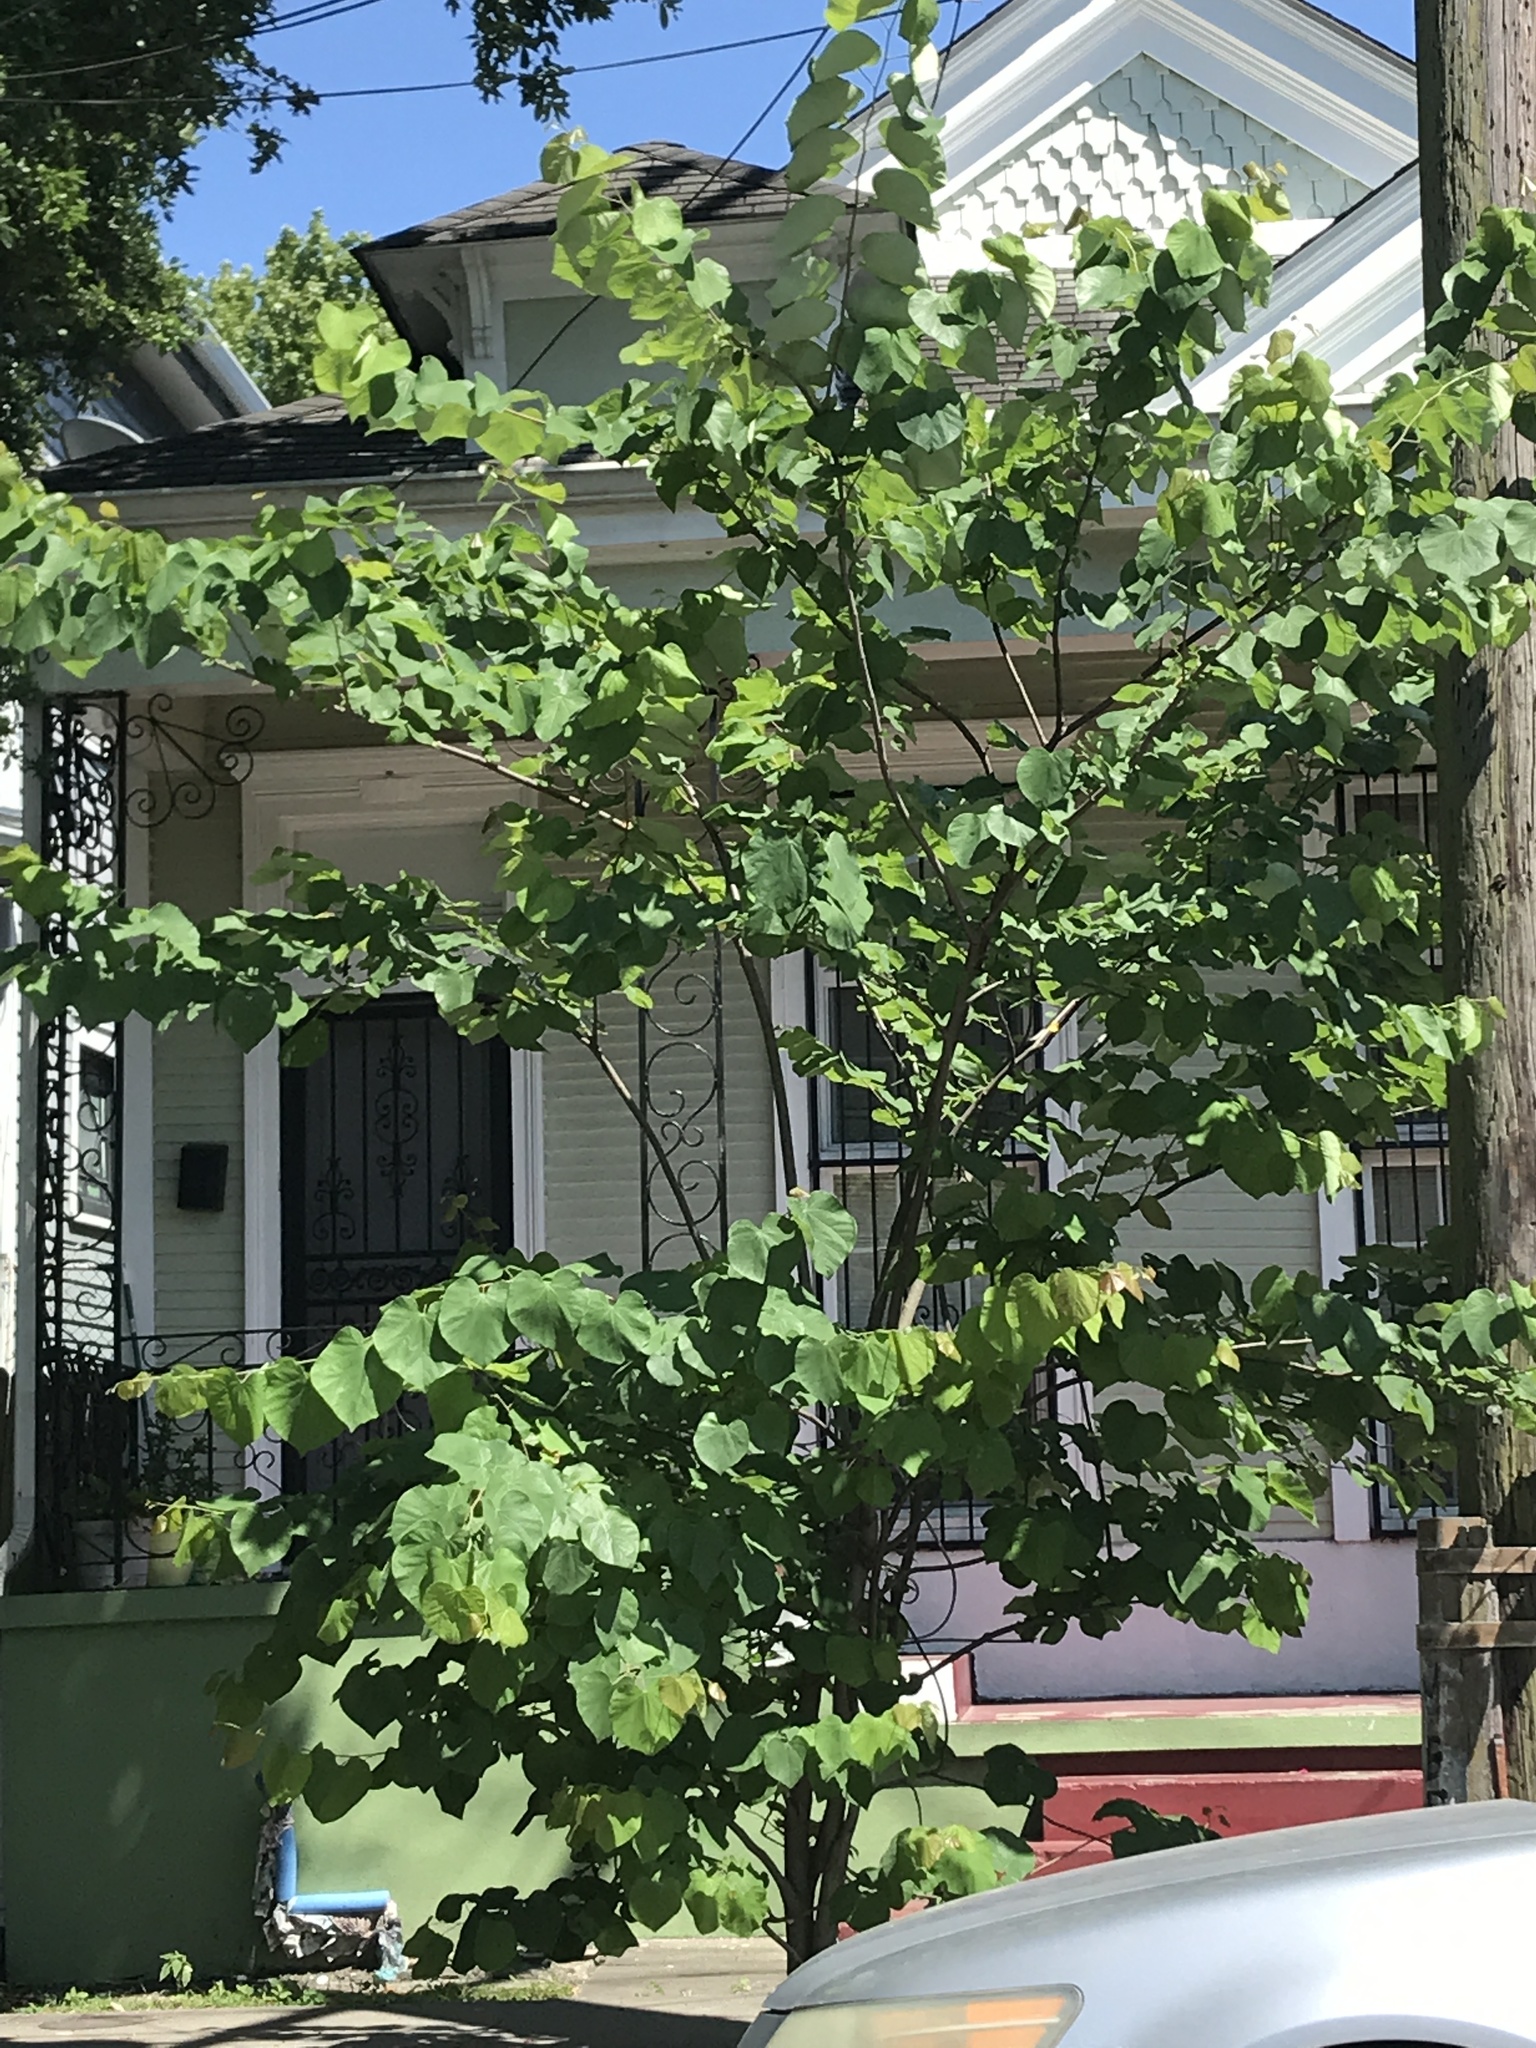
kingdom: Plantae
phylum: Tracheophyta
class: Magnoliopsida
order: Fabales
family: Fabaceae
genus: Cercis
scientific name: Cercis canadensis
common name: Eastern redbud
